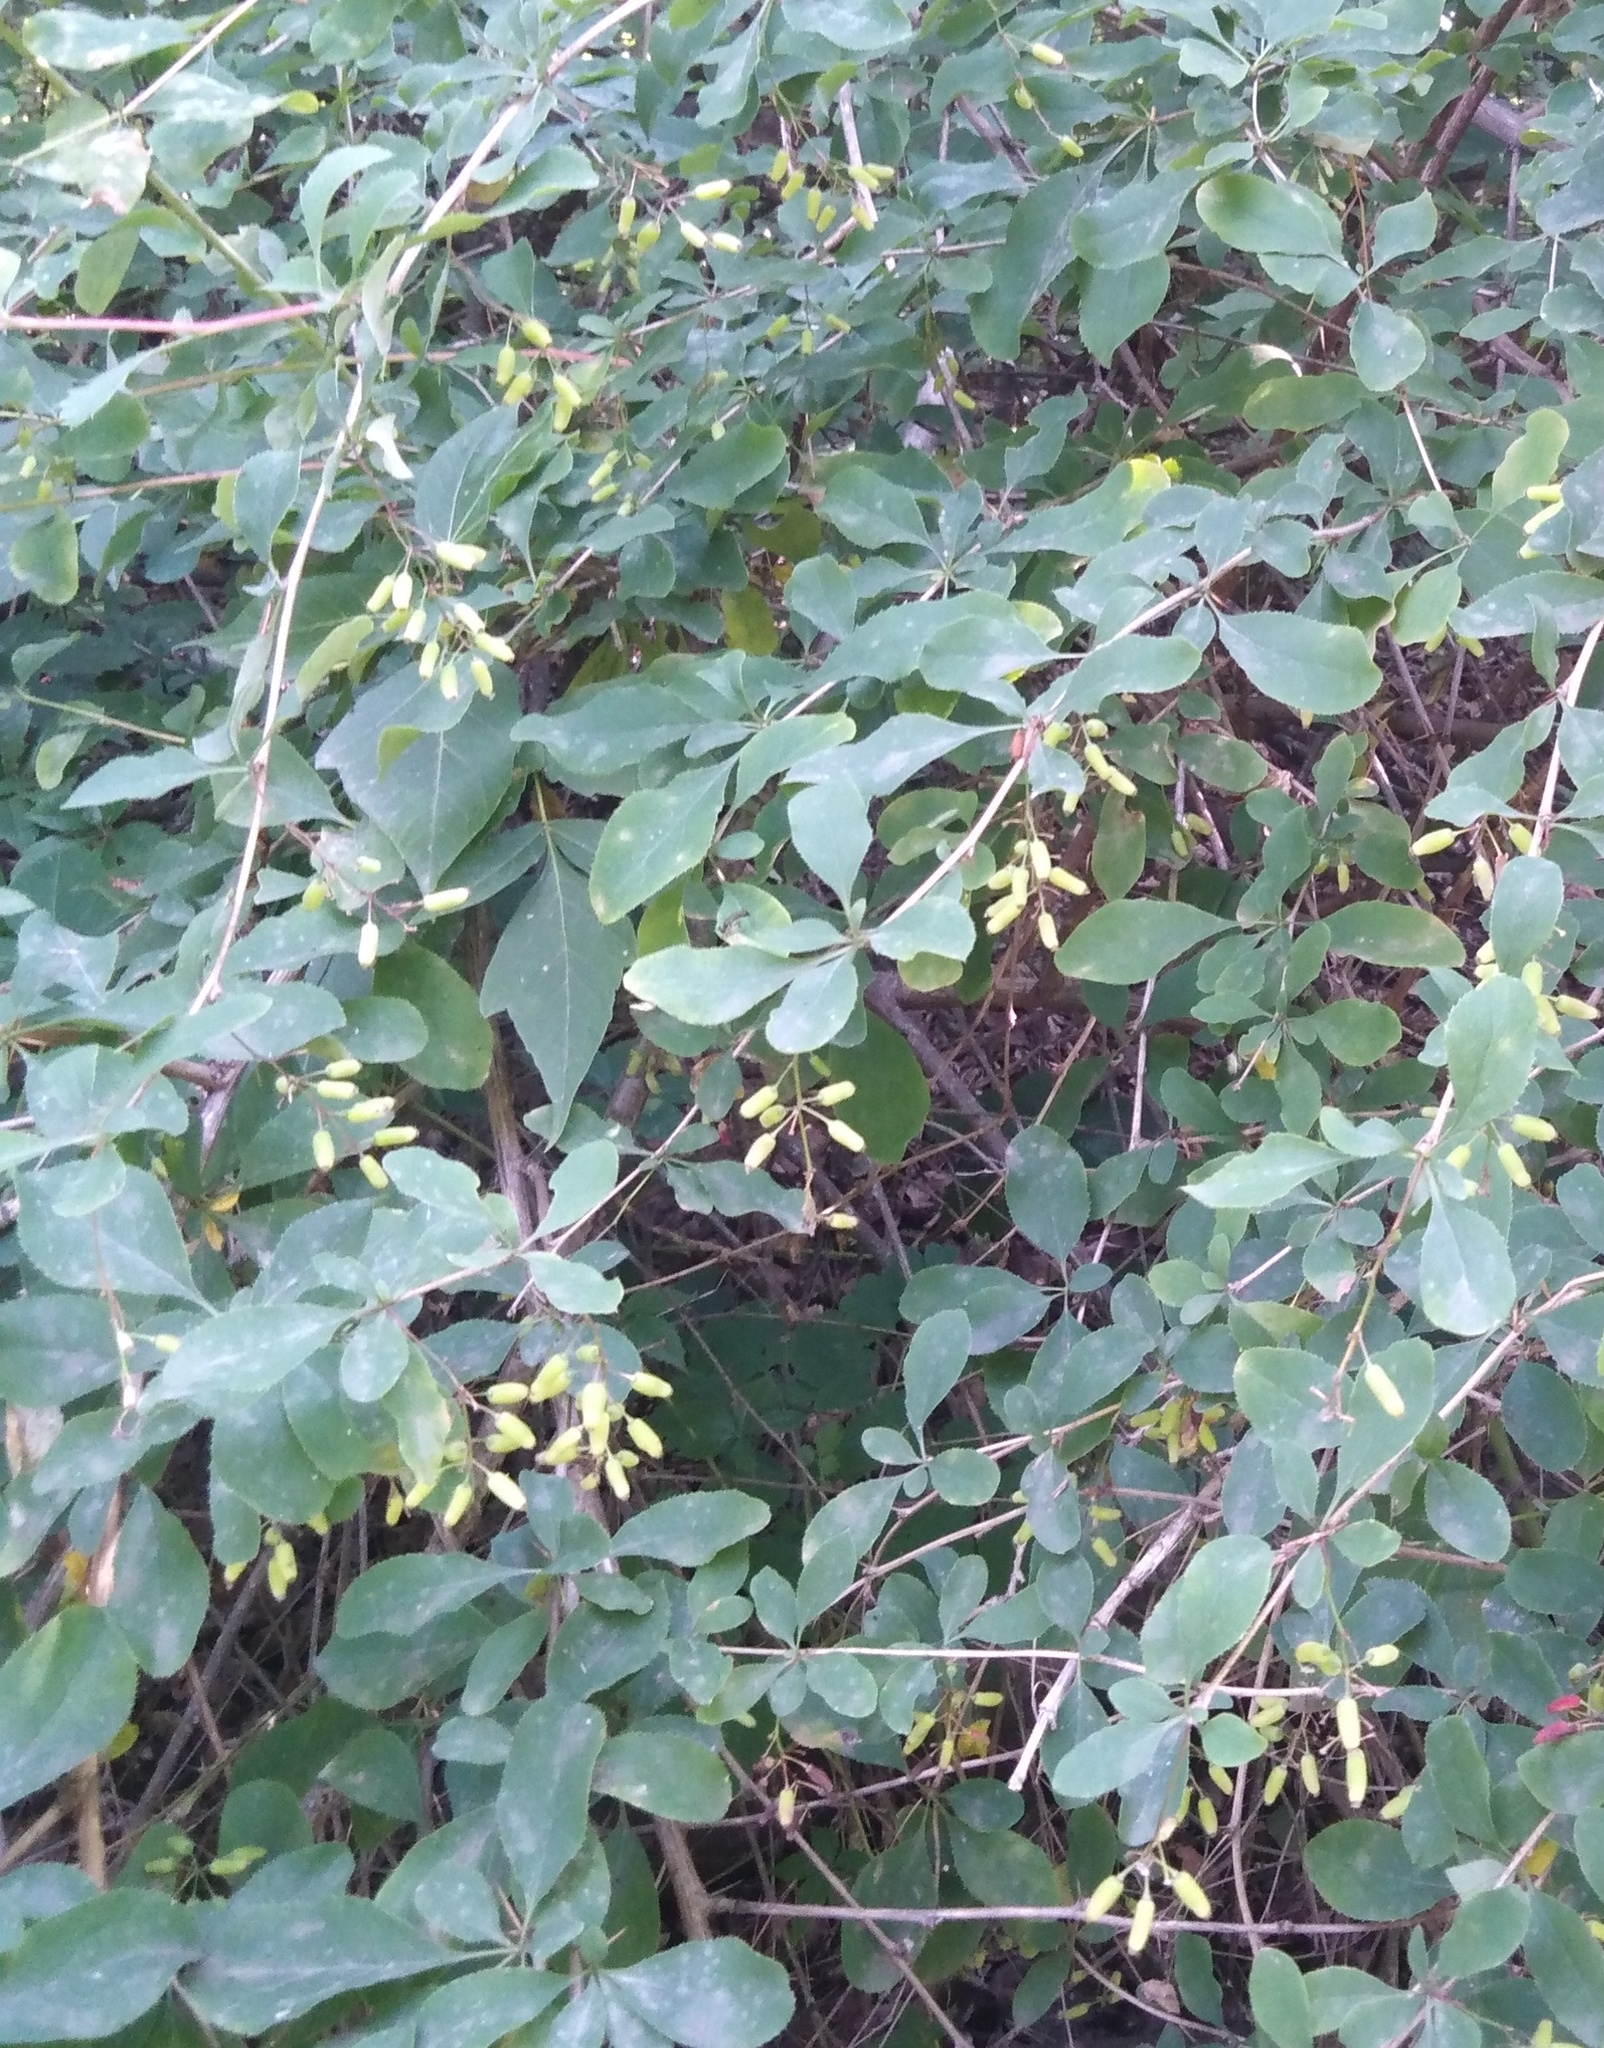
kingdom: Plantae
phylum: Tracheophyta
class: Magnoliopsida
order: Ranunculales
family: Berberidaceae
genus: Berberis
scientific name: Berberis vulgaris
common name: Barberry
